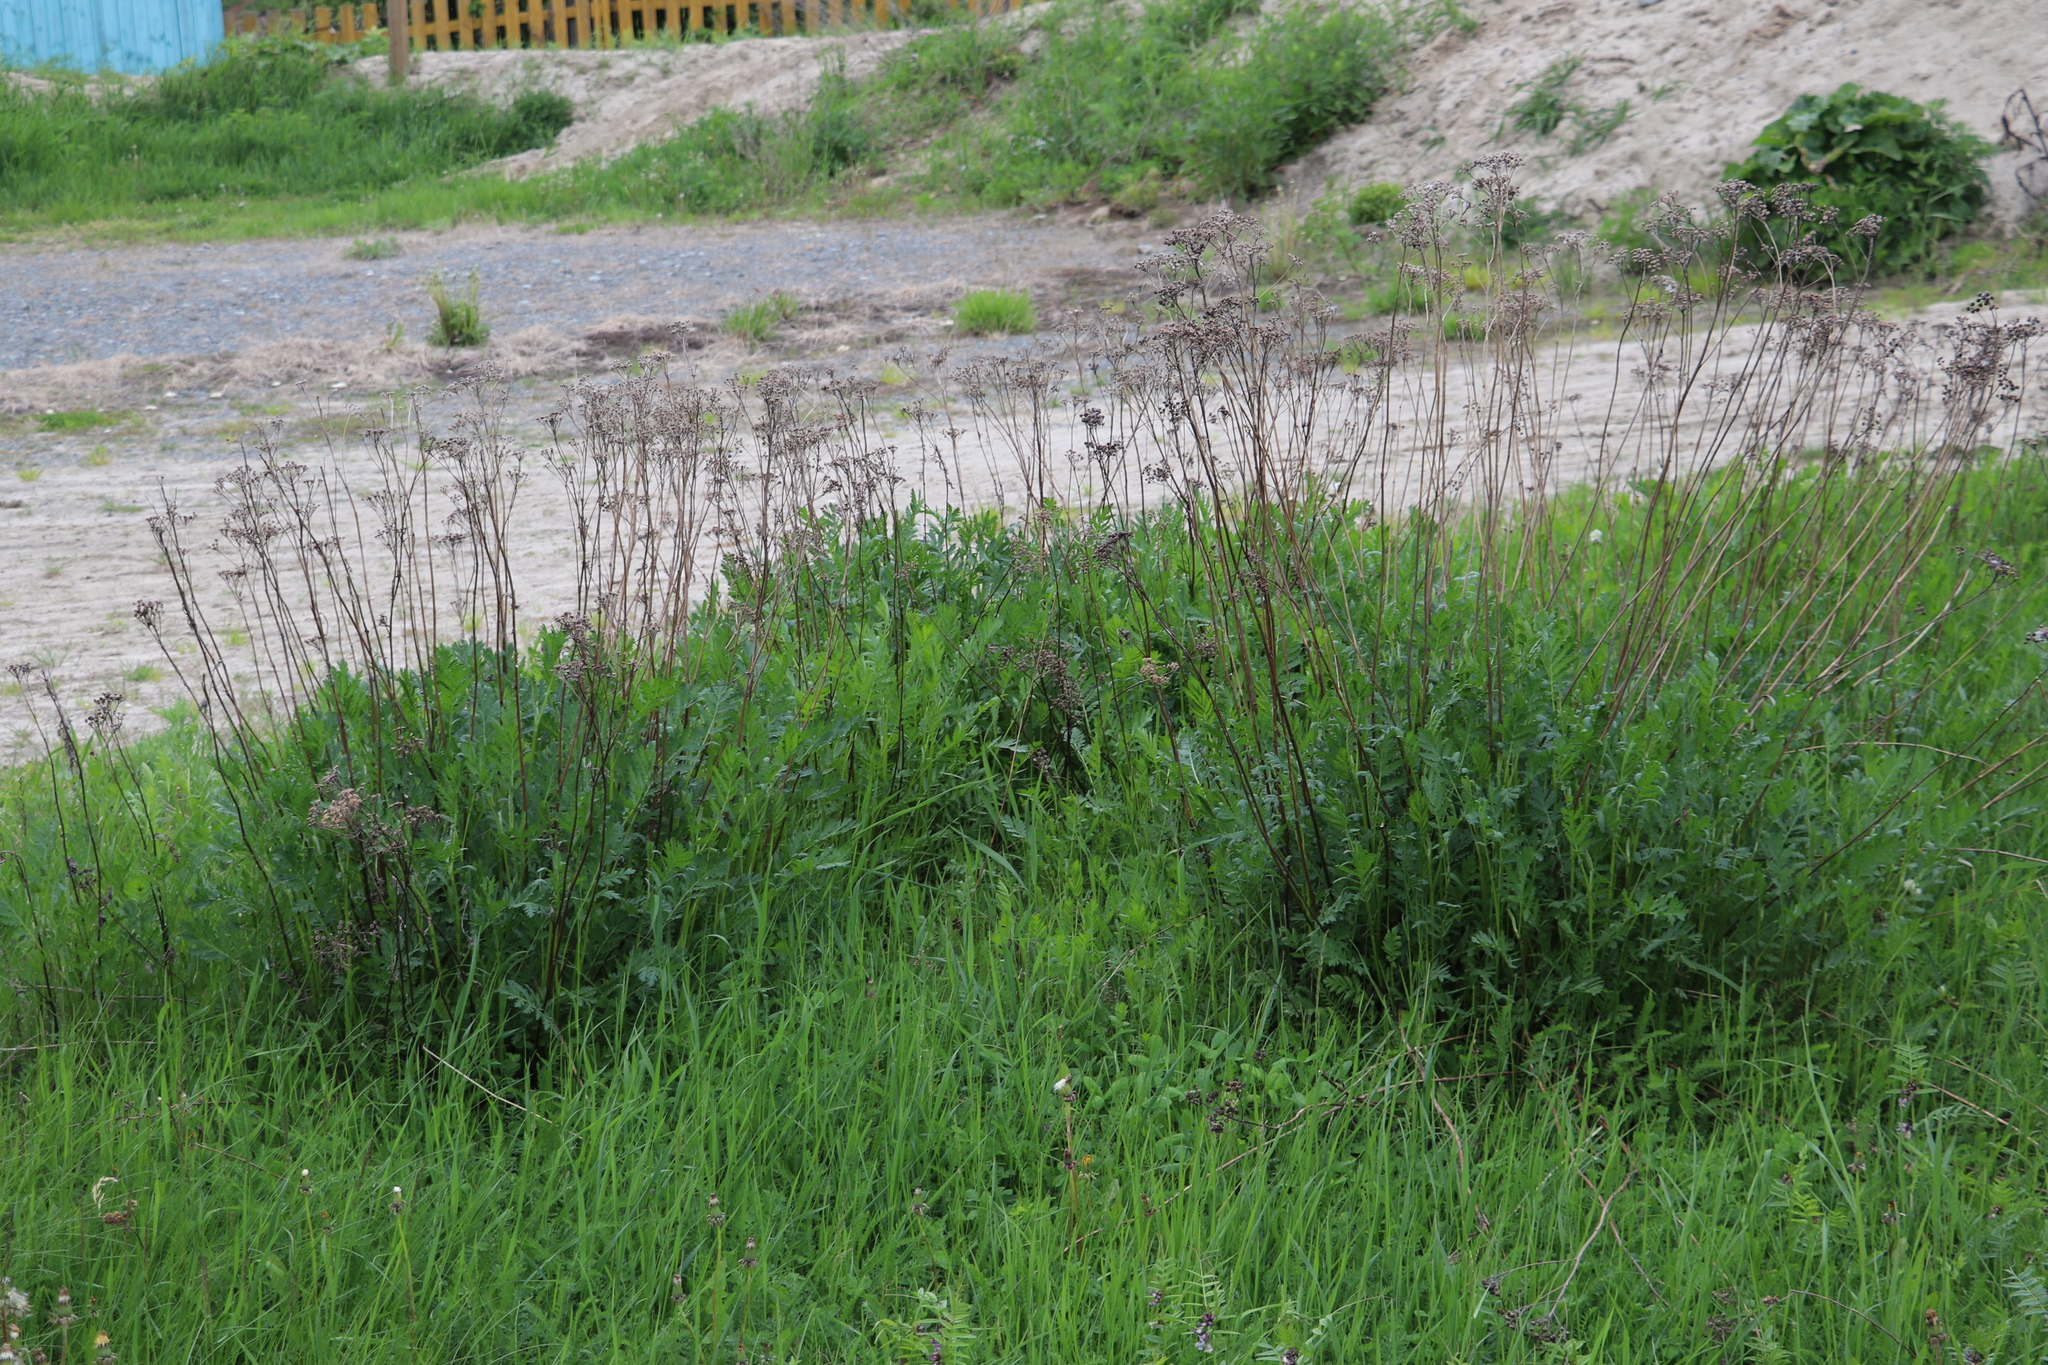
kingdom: Plantae
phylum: Tracheophyta
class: Magnoliopsida
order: Asterales
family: Asteraceae
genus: Tanacetum
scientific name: Tanacetum vulgare
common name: Common tansy
